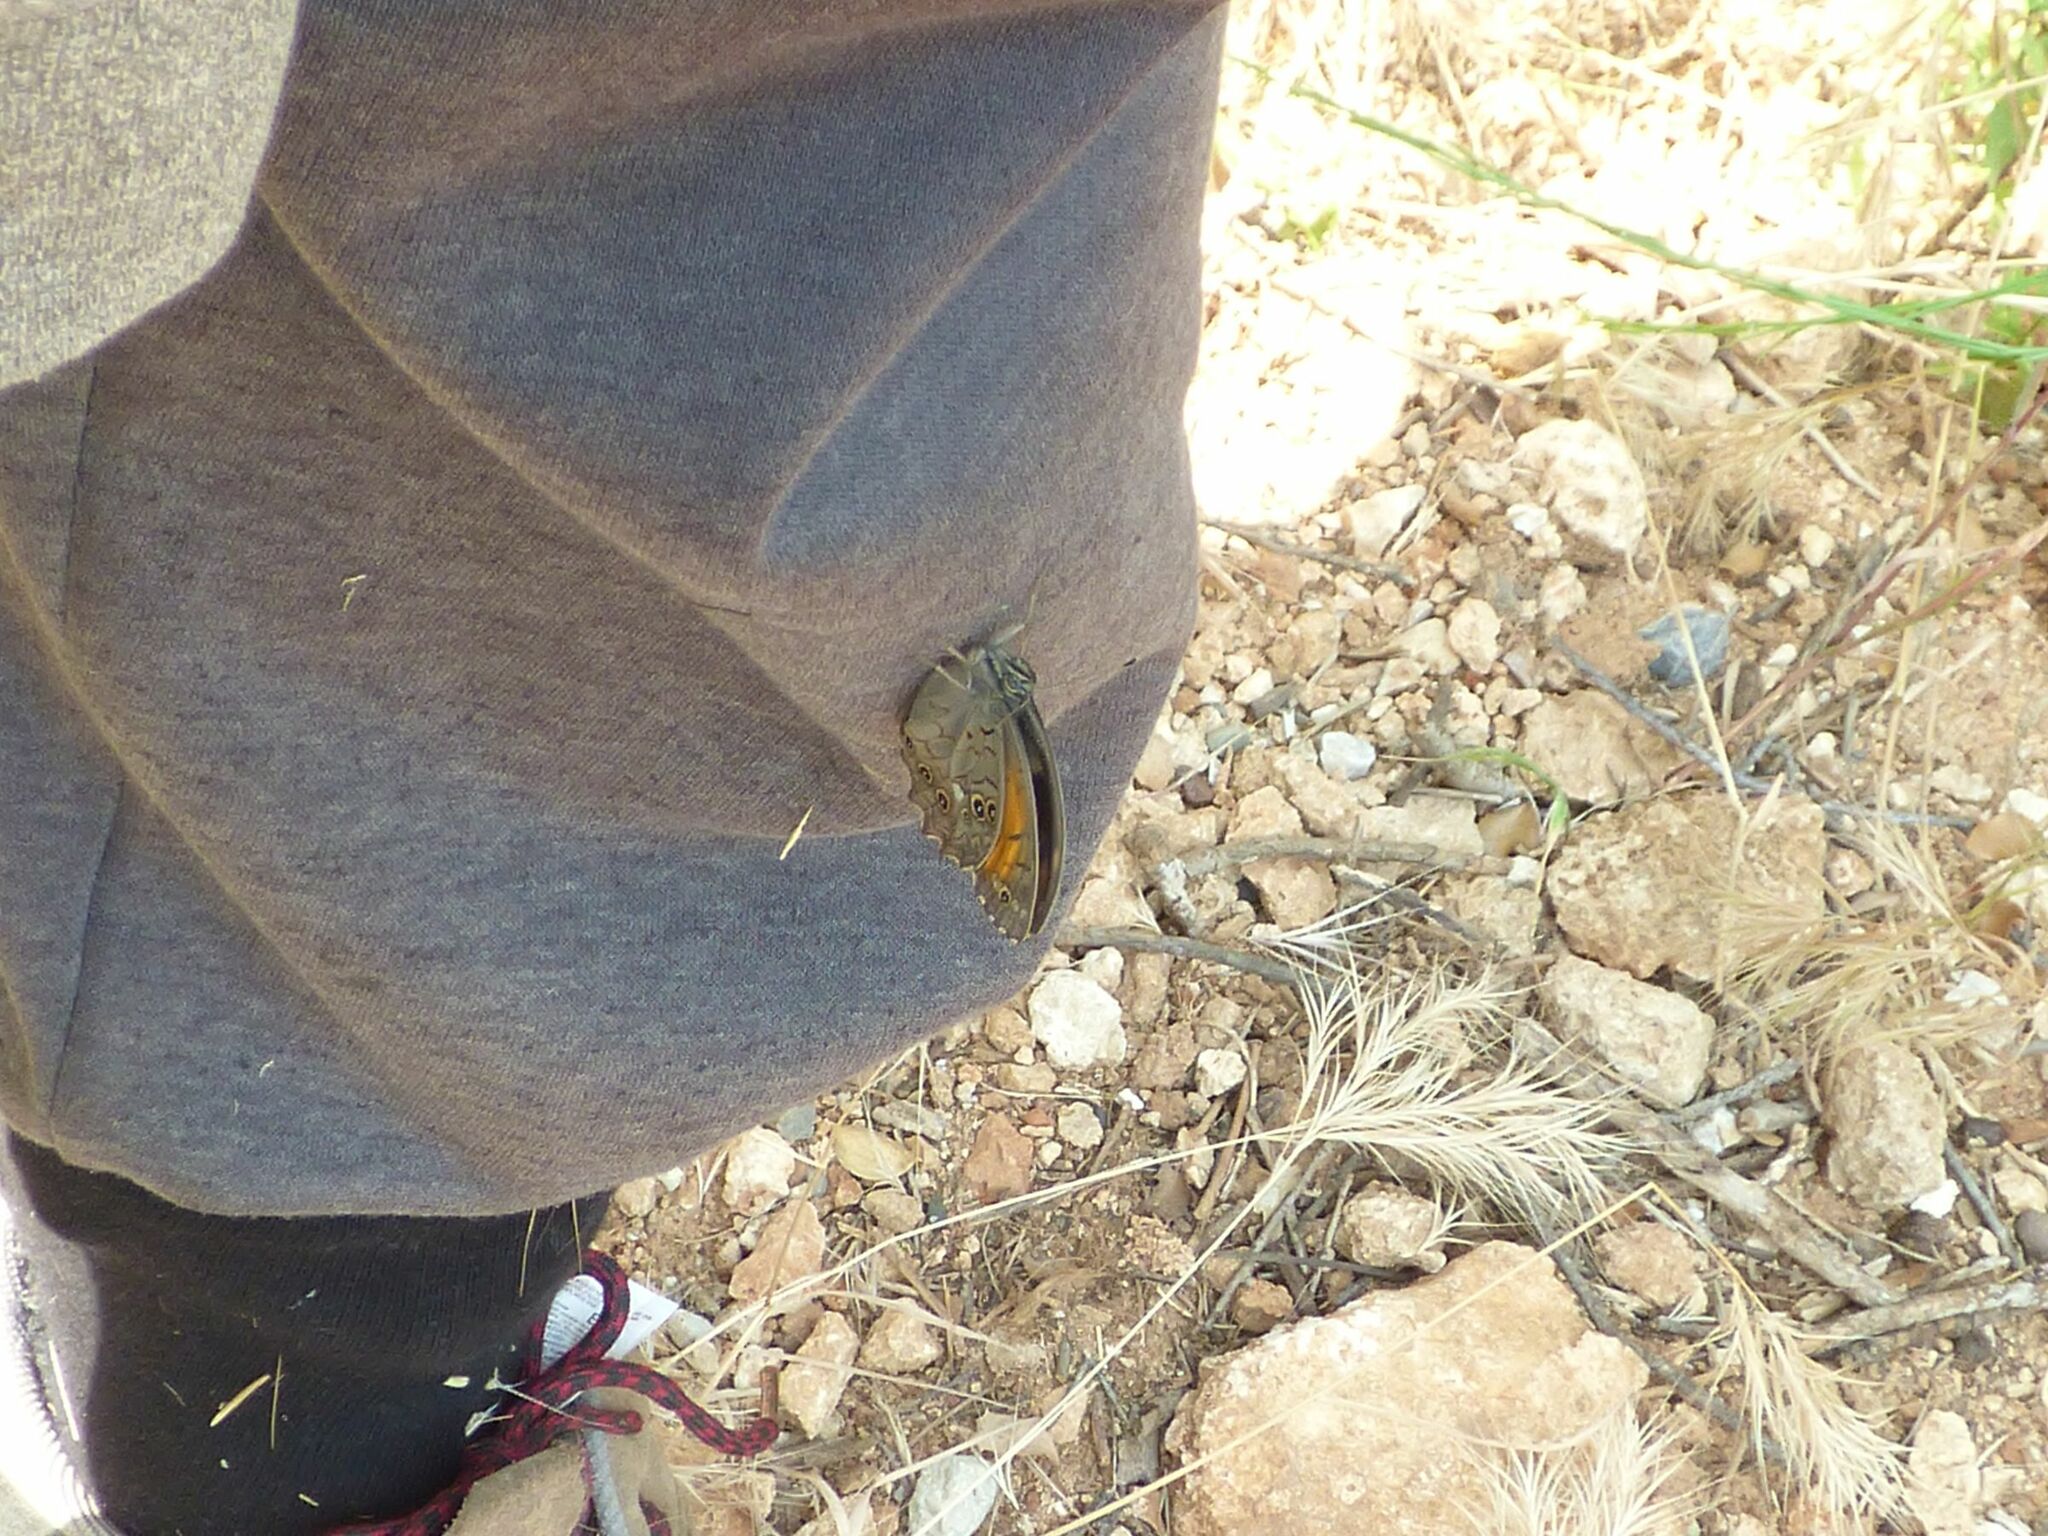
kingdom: Animalia
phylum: Arthropoda
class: Insecta
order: Lepidoptera
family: Nymphalidae
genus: Kirinia
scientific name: Kirinia roxelana
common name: Lattice brown
